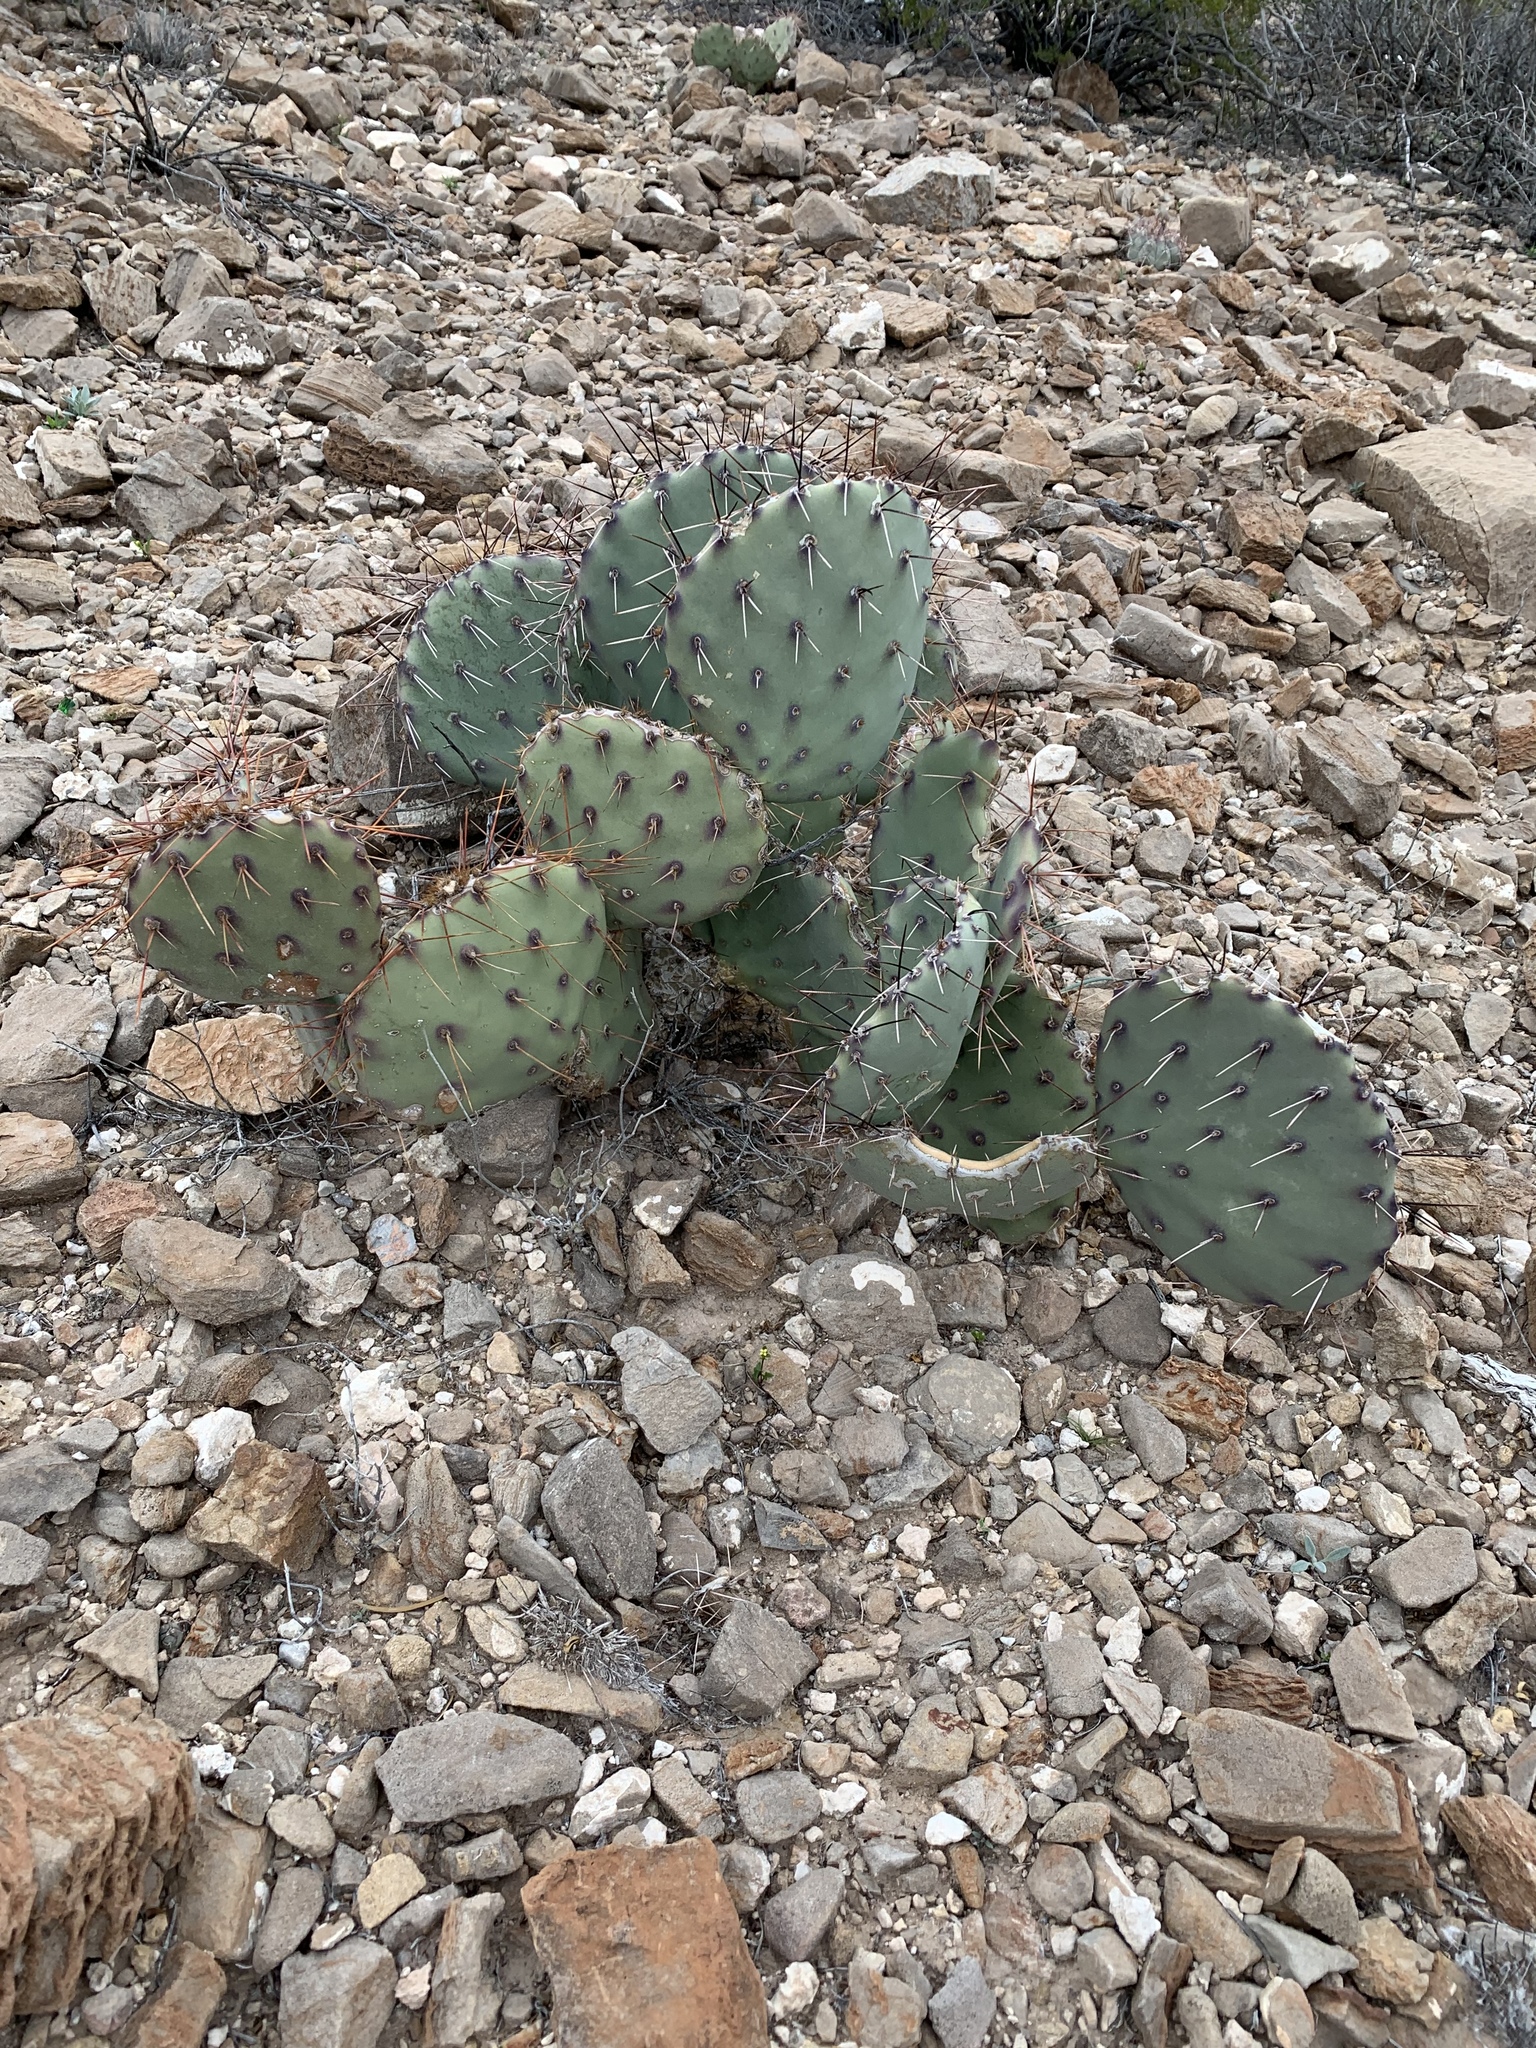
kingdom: Plantae
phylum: Tracheophyta
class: Magnoliopsida
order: Caryophyllales
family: Cactaceae
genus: Opuntia
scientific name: Opuntia phaeacantha
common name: New mexico prickly-pear
